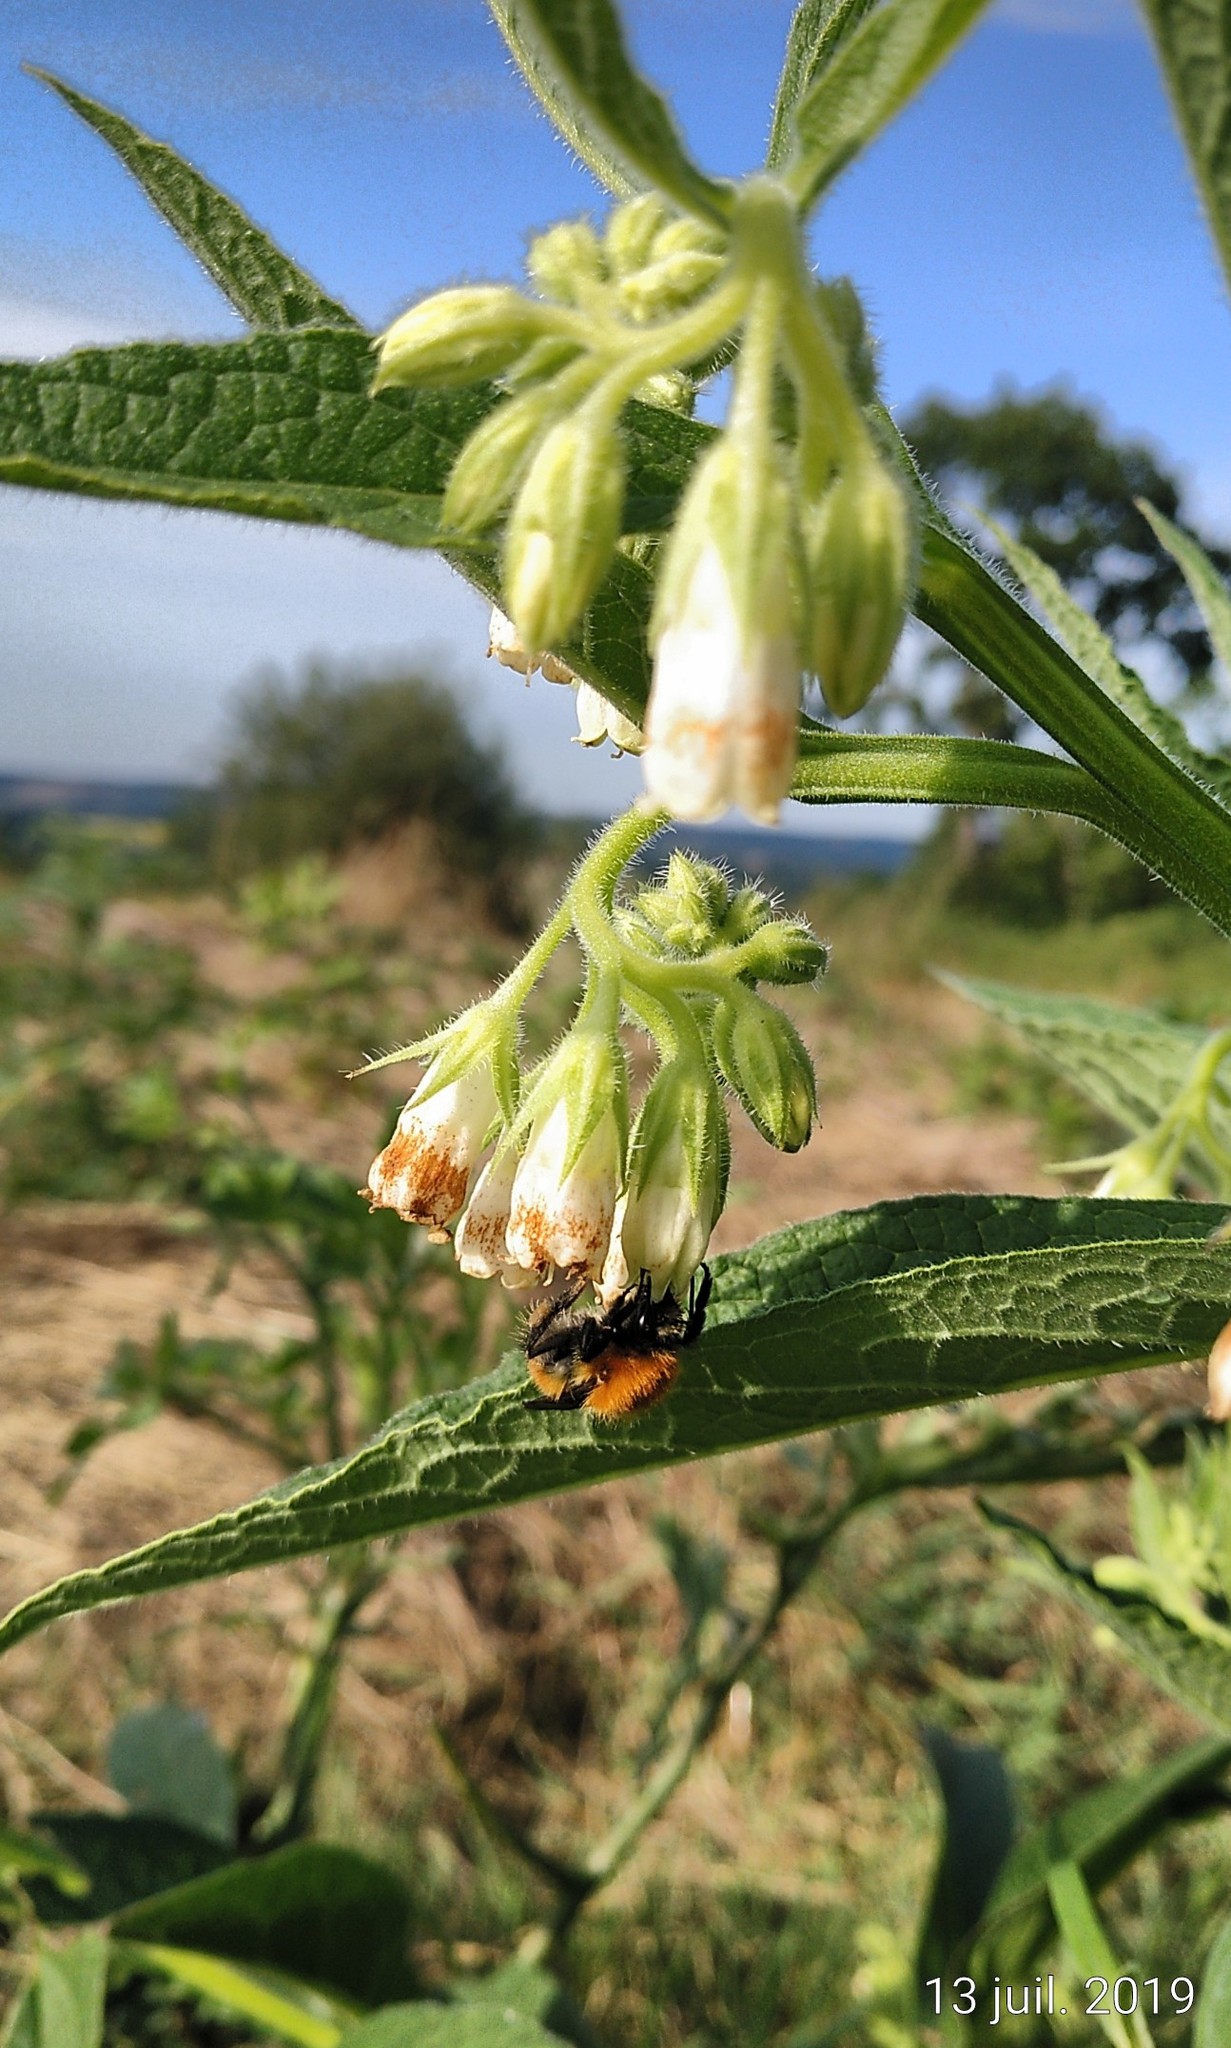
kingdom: Animalia
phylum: Arthropoda
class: Insecta
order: Hymenoptera
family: Apidae
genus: Bombus
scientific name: Bombus pascuorum
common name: Common carder bee
